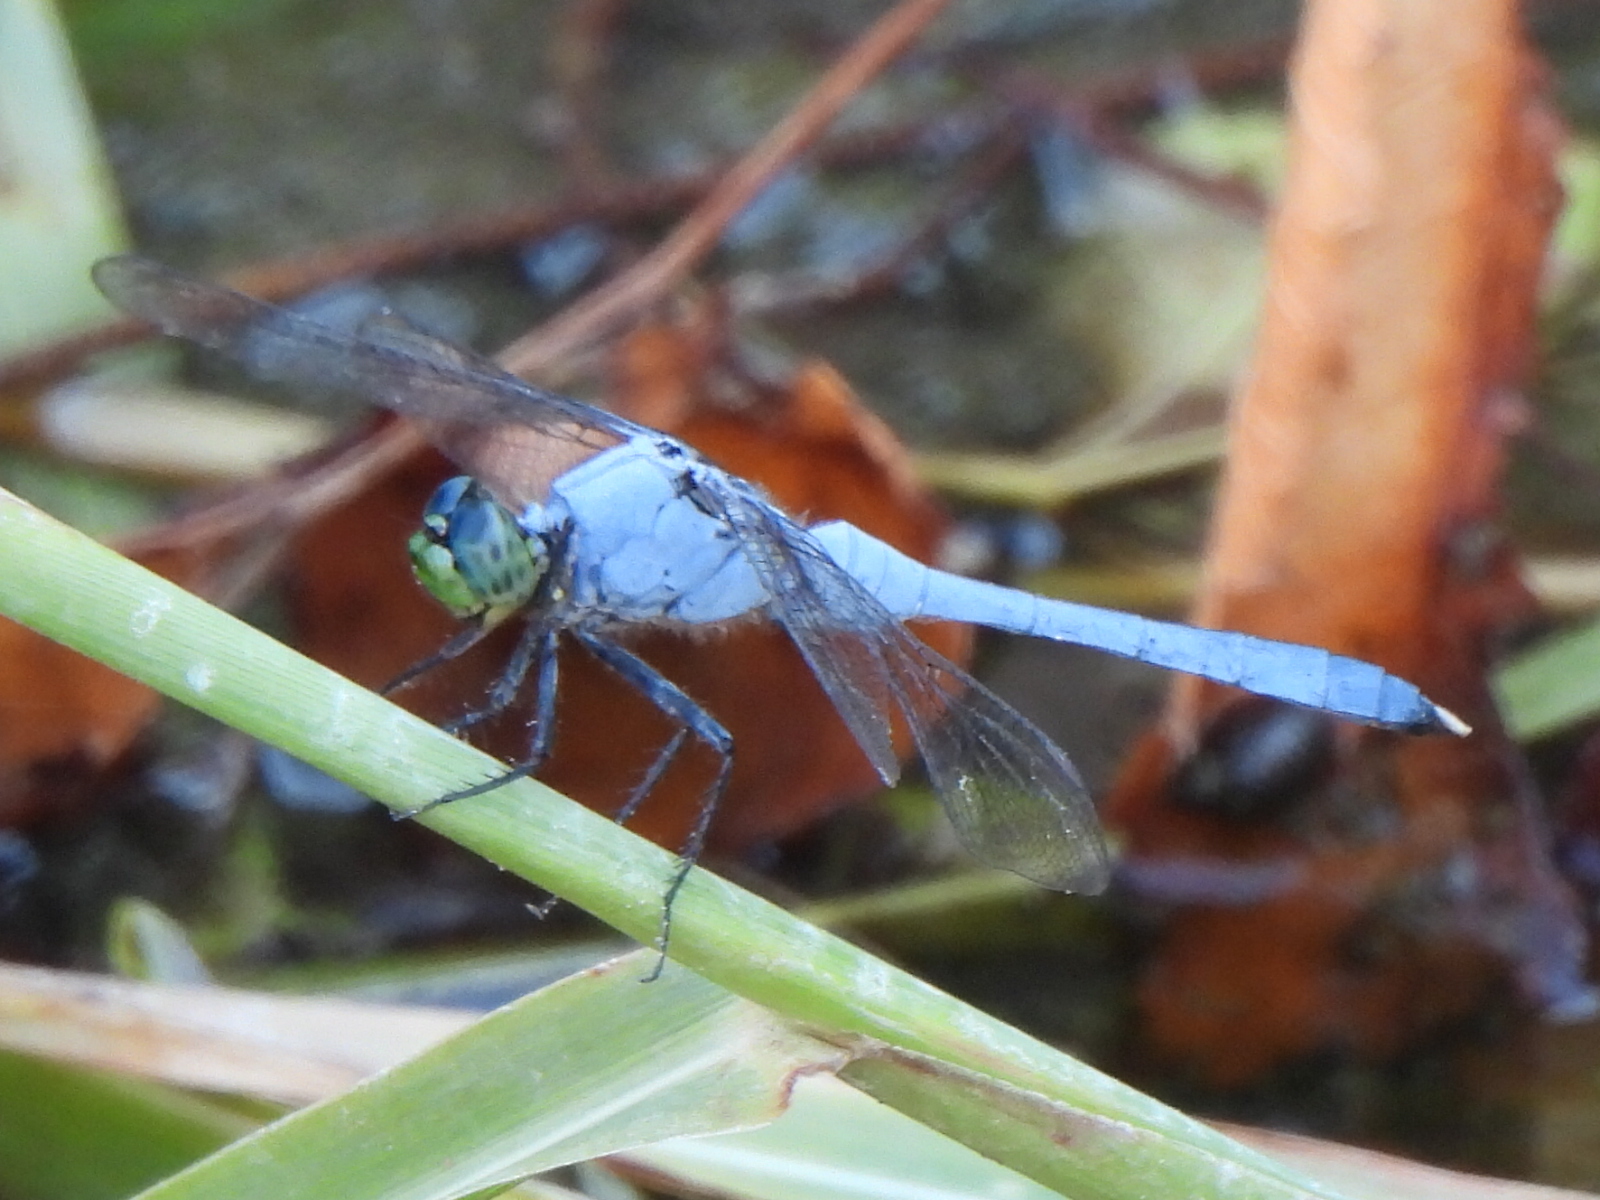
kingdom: Animalia
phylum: Arthropoda
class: Insecta
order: Odonata
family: Libellulidae
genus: Erythemis
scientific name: Erythemis simplicicollis
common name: Eastern pondhawk
